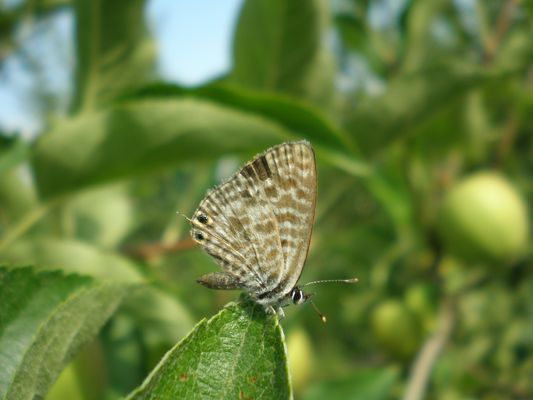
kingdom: Animalia
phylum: Arthropoda
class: Insecta
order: Lepidoptera
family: Lycaenidae
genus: Leptotes
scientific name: Leptotes pirithous
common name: Lang's short-tailed blue
